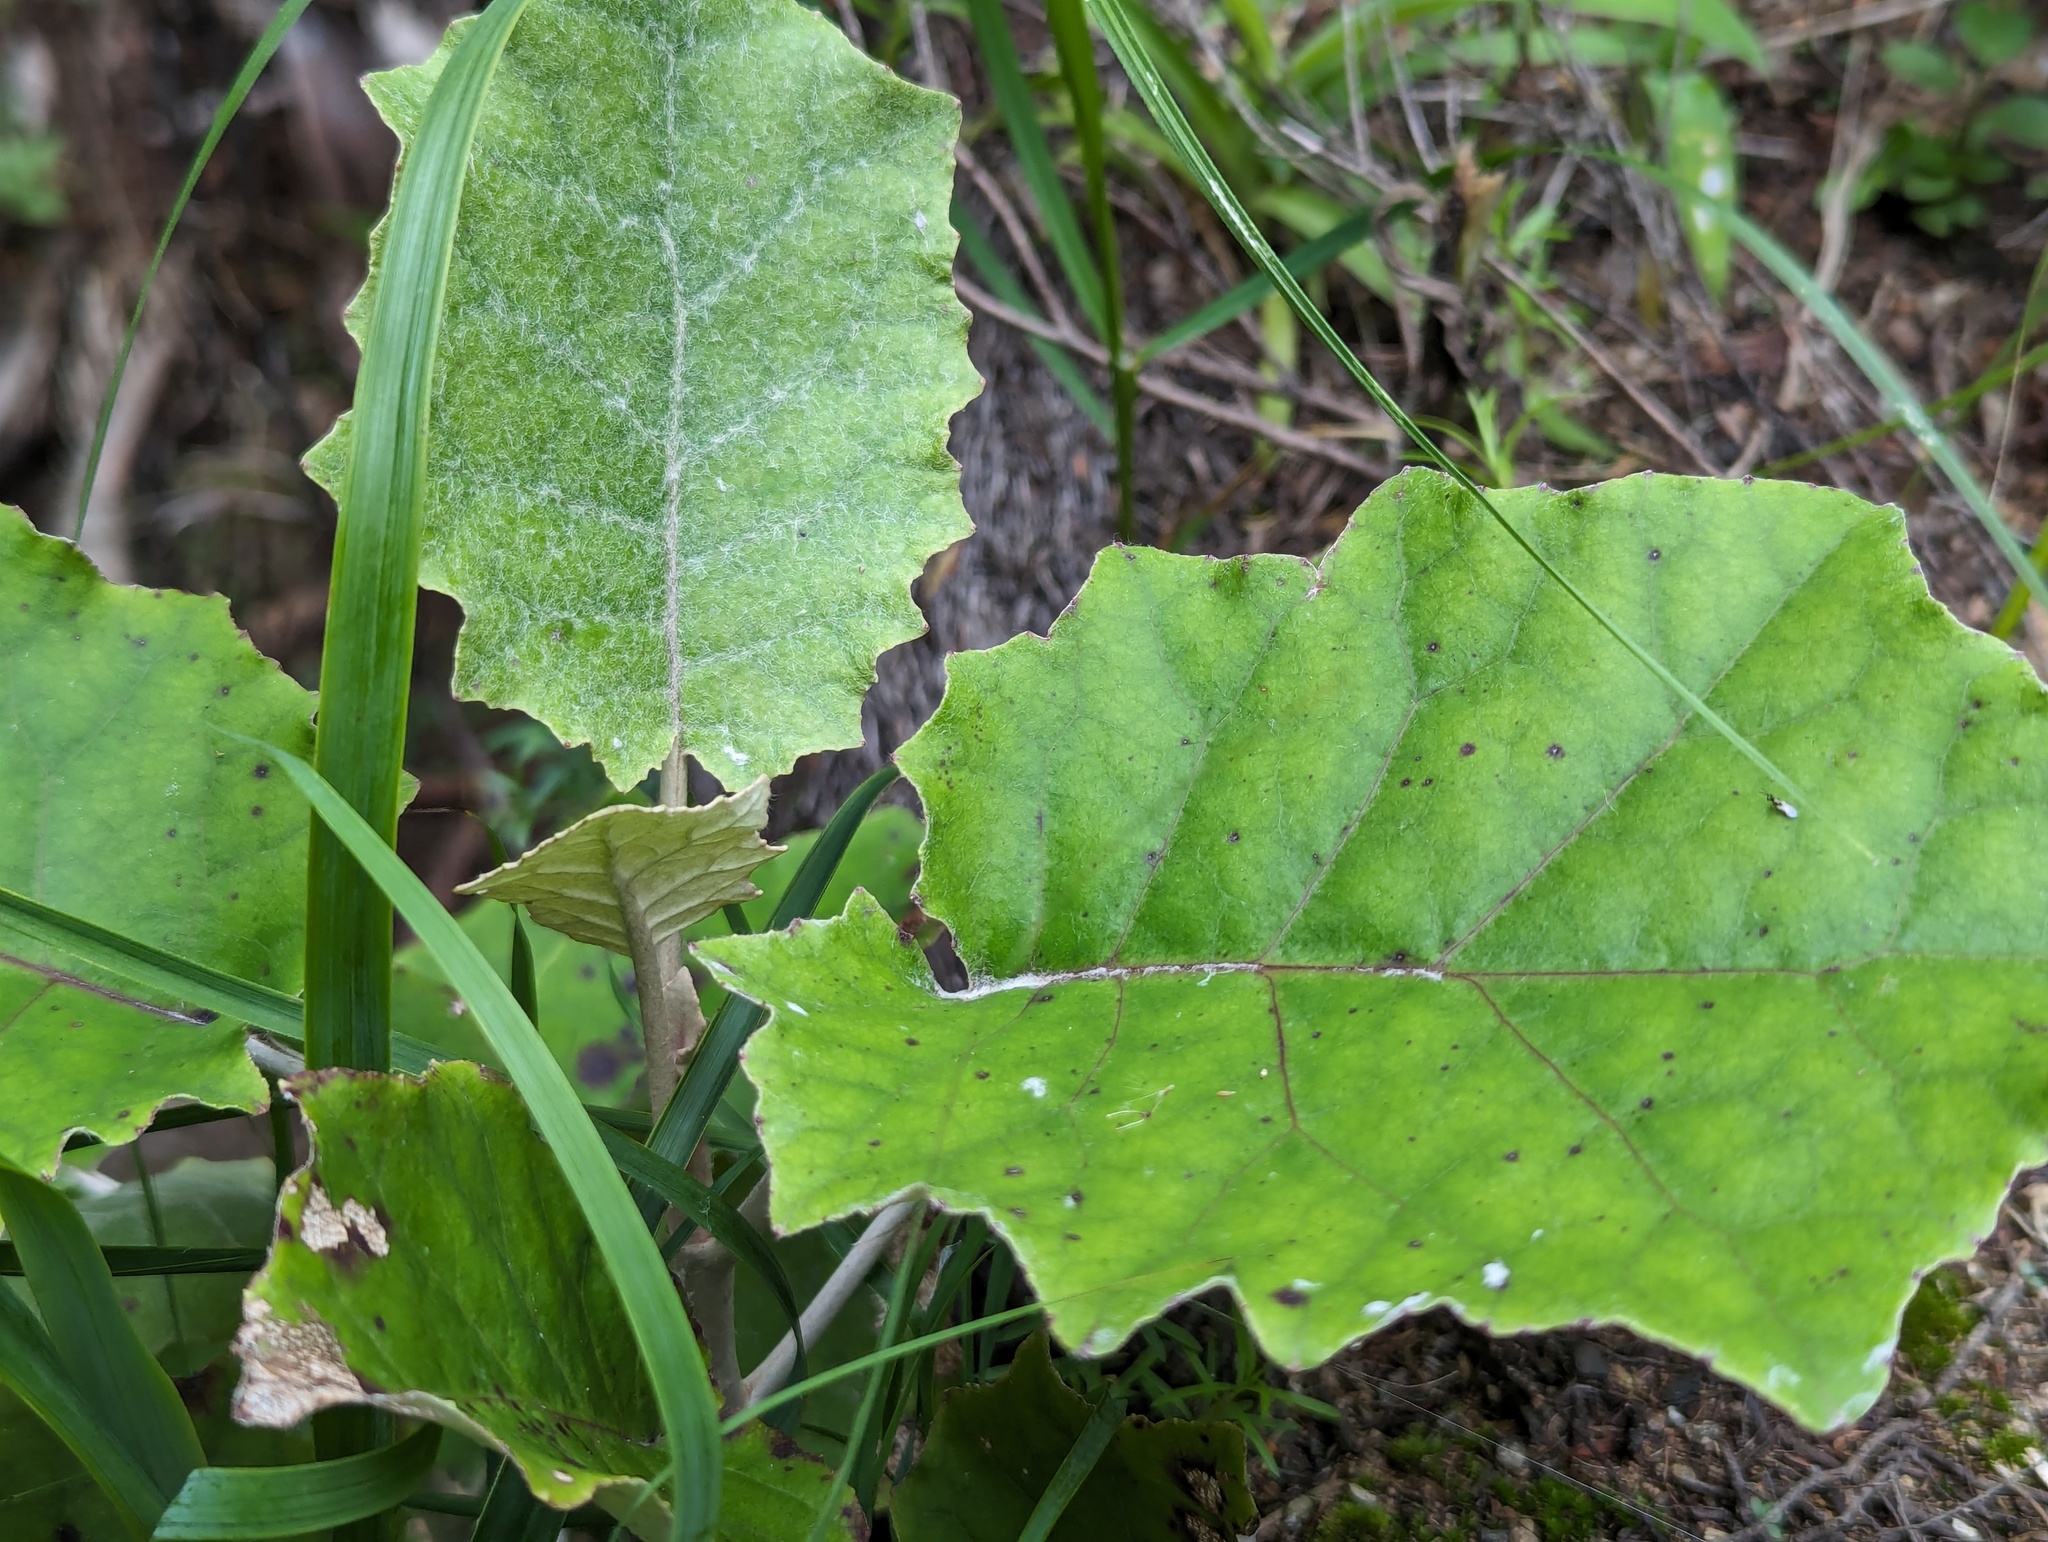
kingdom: Plantae
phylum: Tracheophyta
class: Magnoliopsida
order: Asterales
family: Asteraceae
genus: Brachyglottis
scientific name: Brachyglottis repanda
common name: Hedge ragwort
